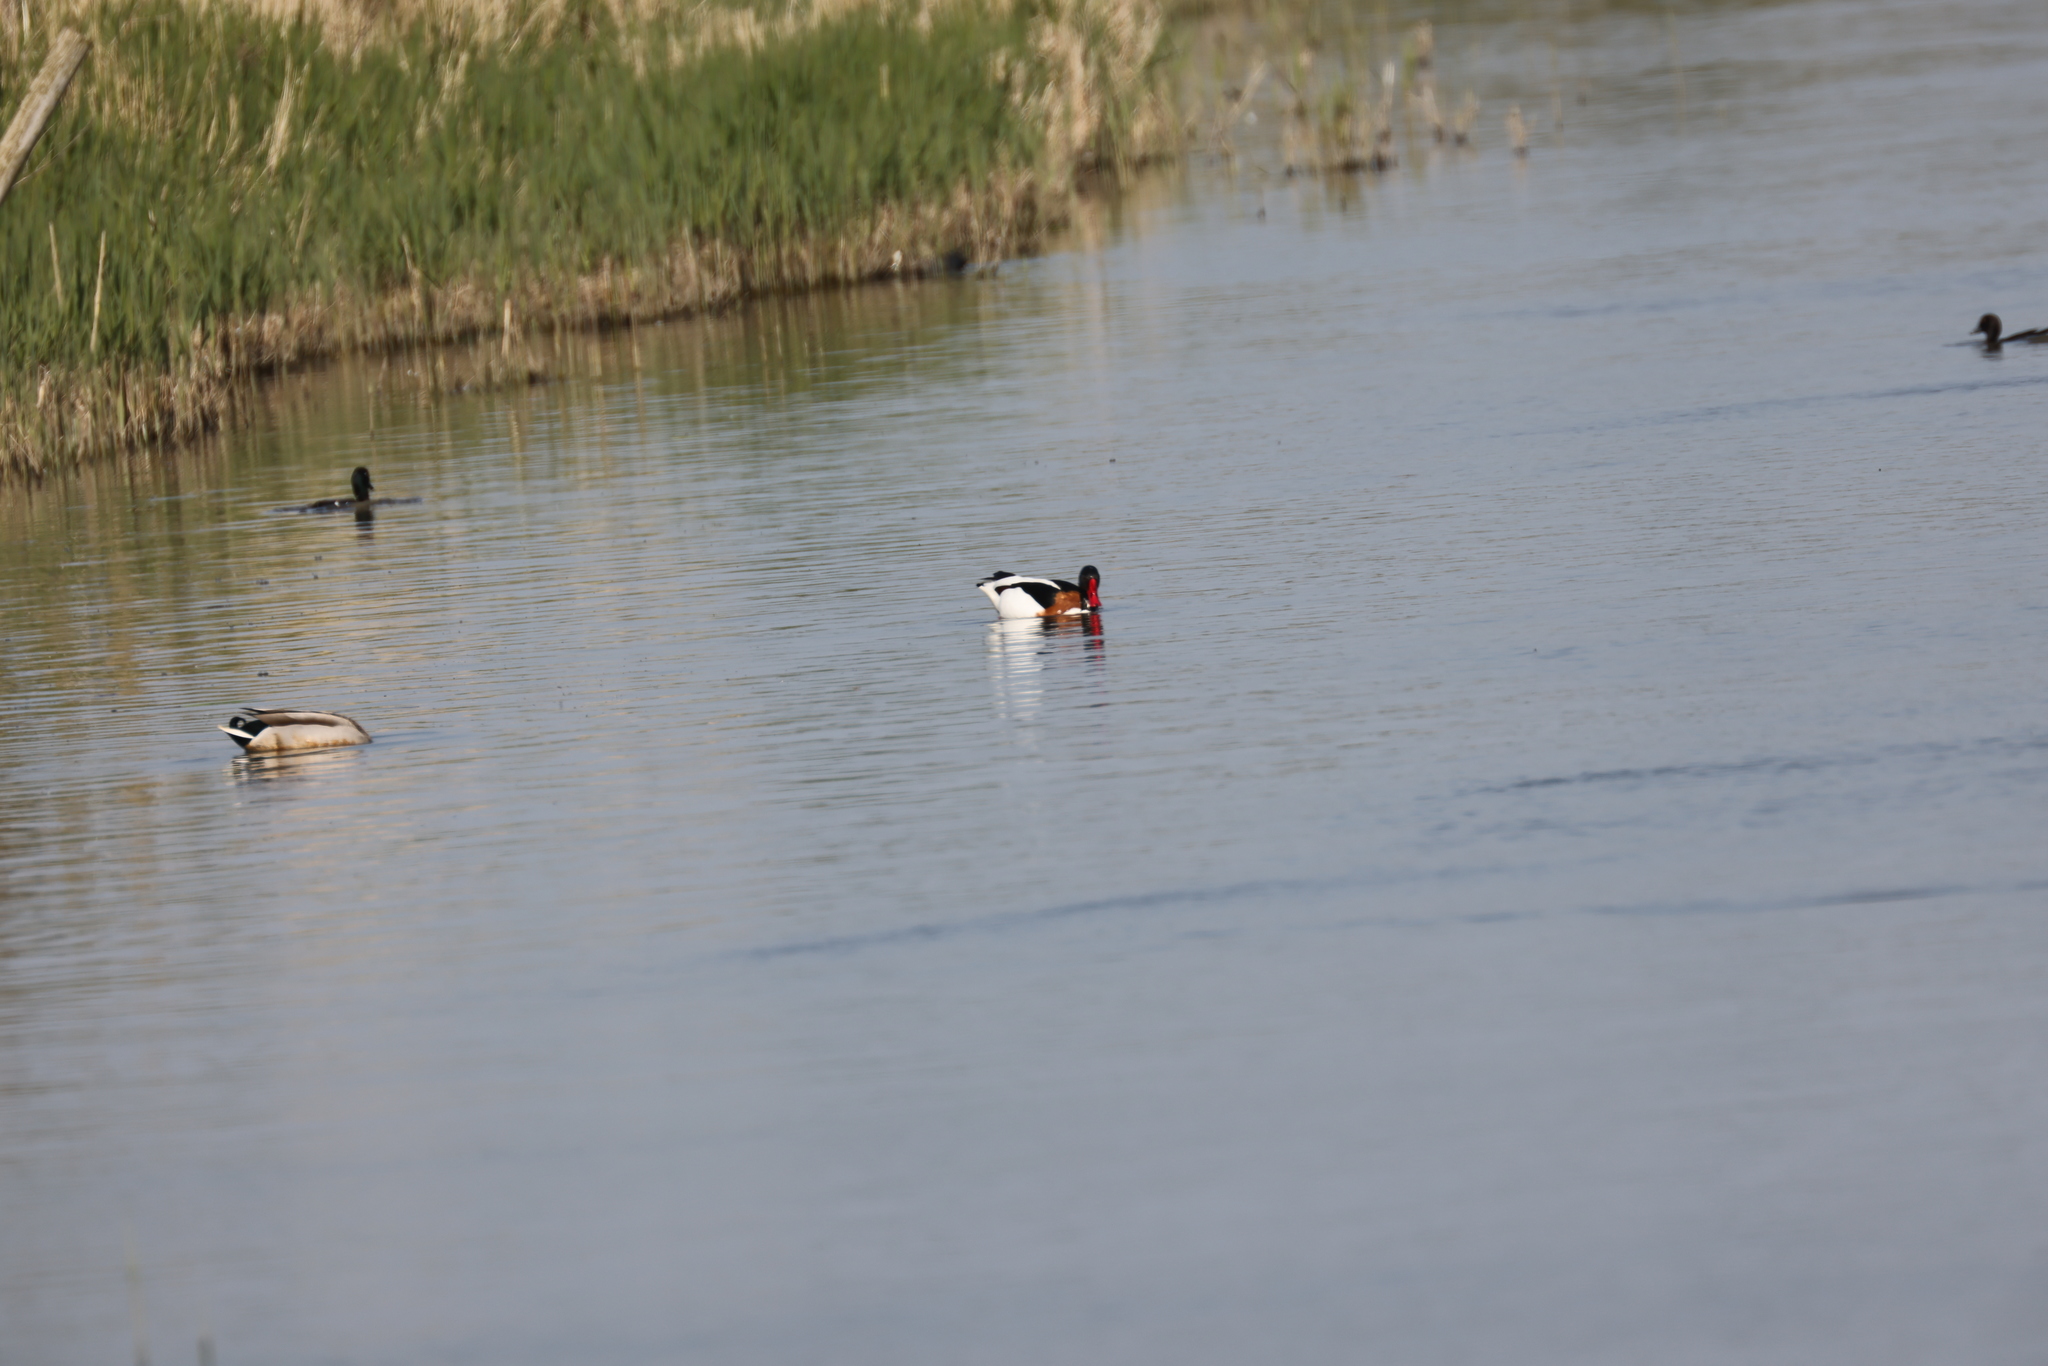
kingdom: Animalia
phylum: Chordata
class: Aves
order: Anseriformes
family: Anatidae
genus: Tadorna
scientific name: Tadorna tadorna
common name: Common shelduck
